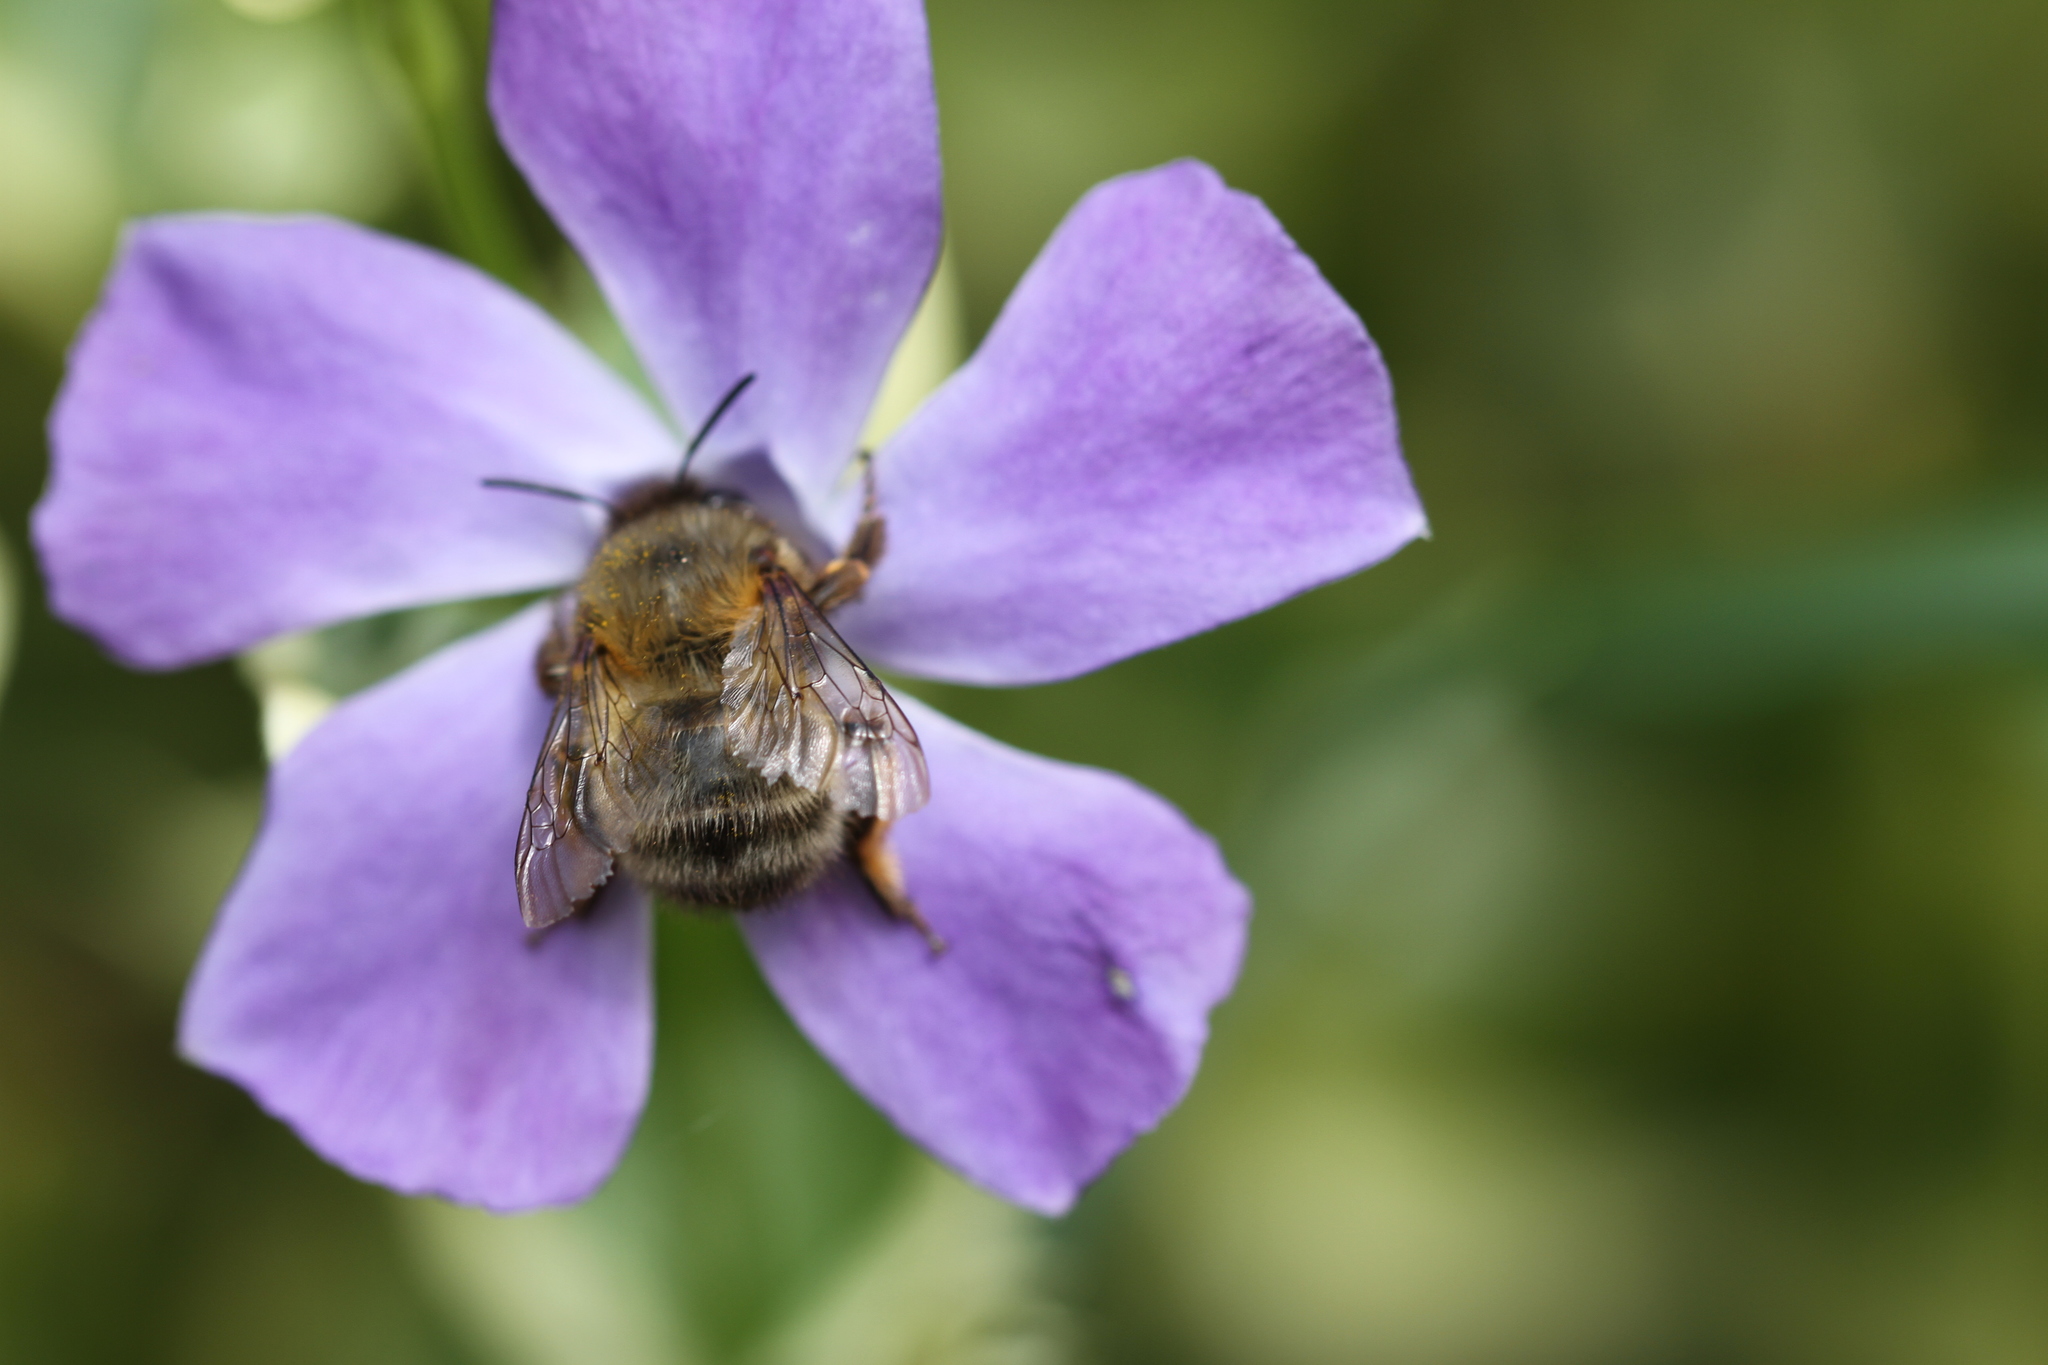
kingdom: Animalia
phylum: Arthropoda
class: Insecta
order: Hymenoptera
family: Apidae
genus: Anthophora
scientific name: Anthophora plumipes
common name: Hairy-footed flower bee
